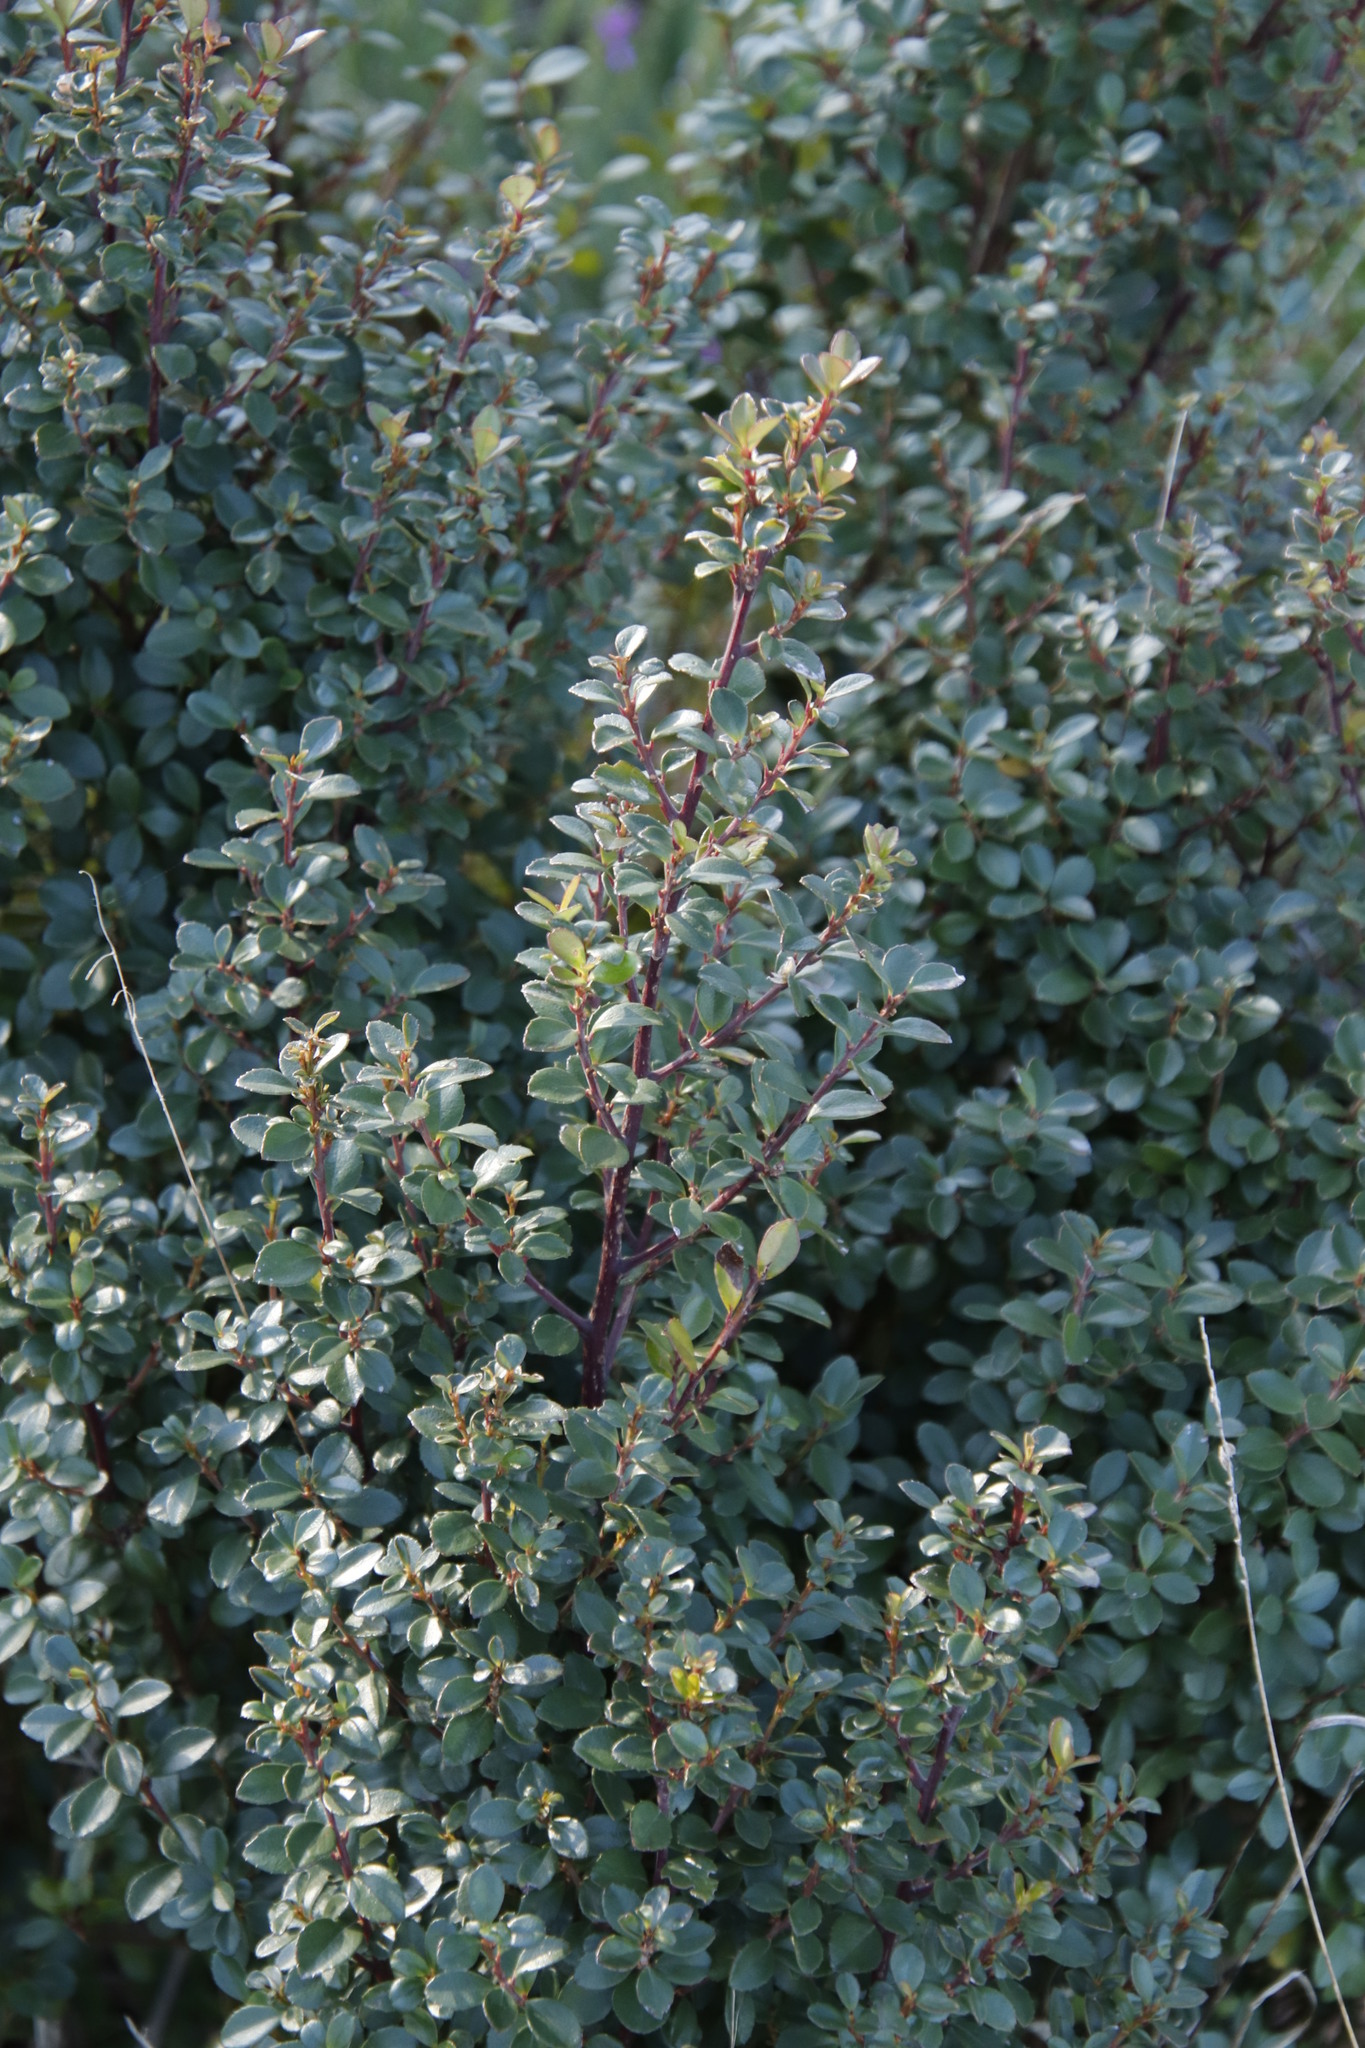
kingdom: Plantae
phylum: Tracheophyta
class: Magnoliopsida
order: Ericales
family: Primulaceae
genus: Myrsine
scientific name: Myrsine africana
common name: African-boxwood
